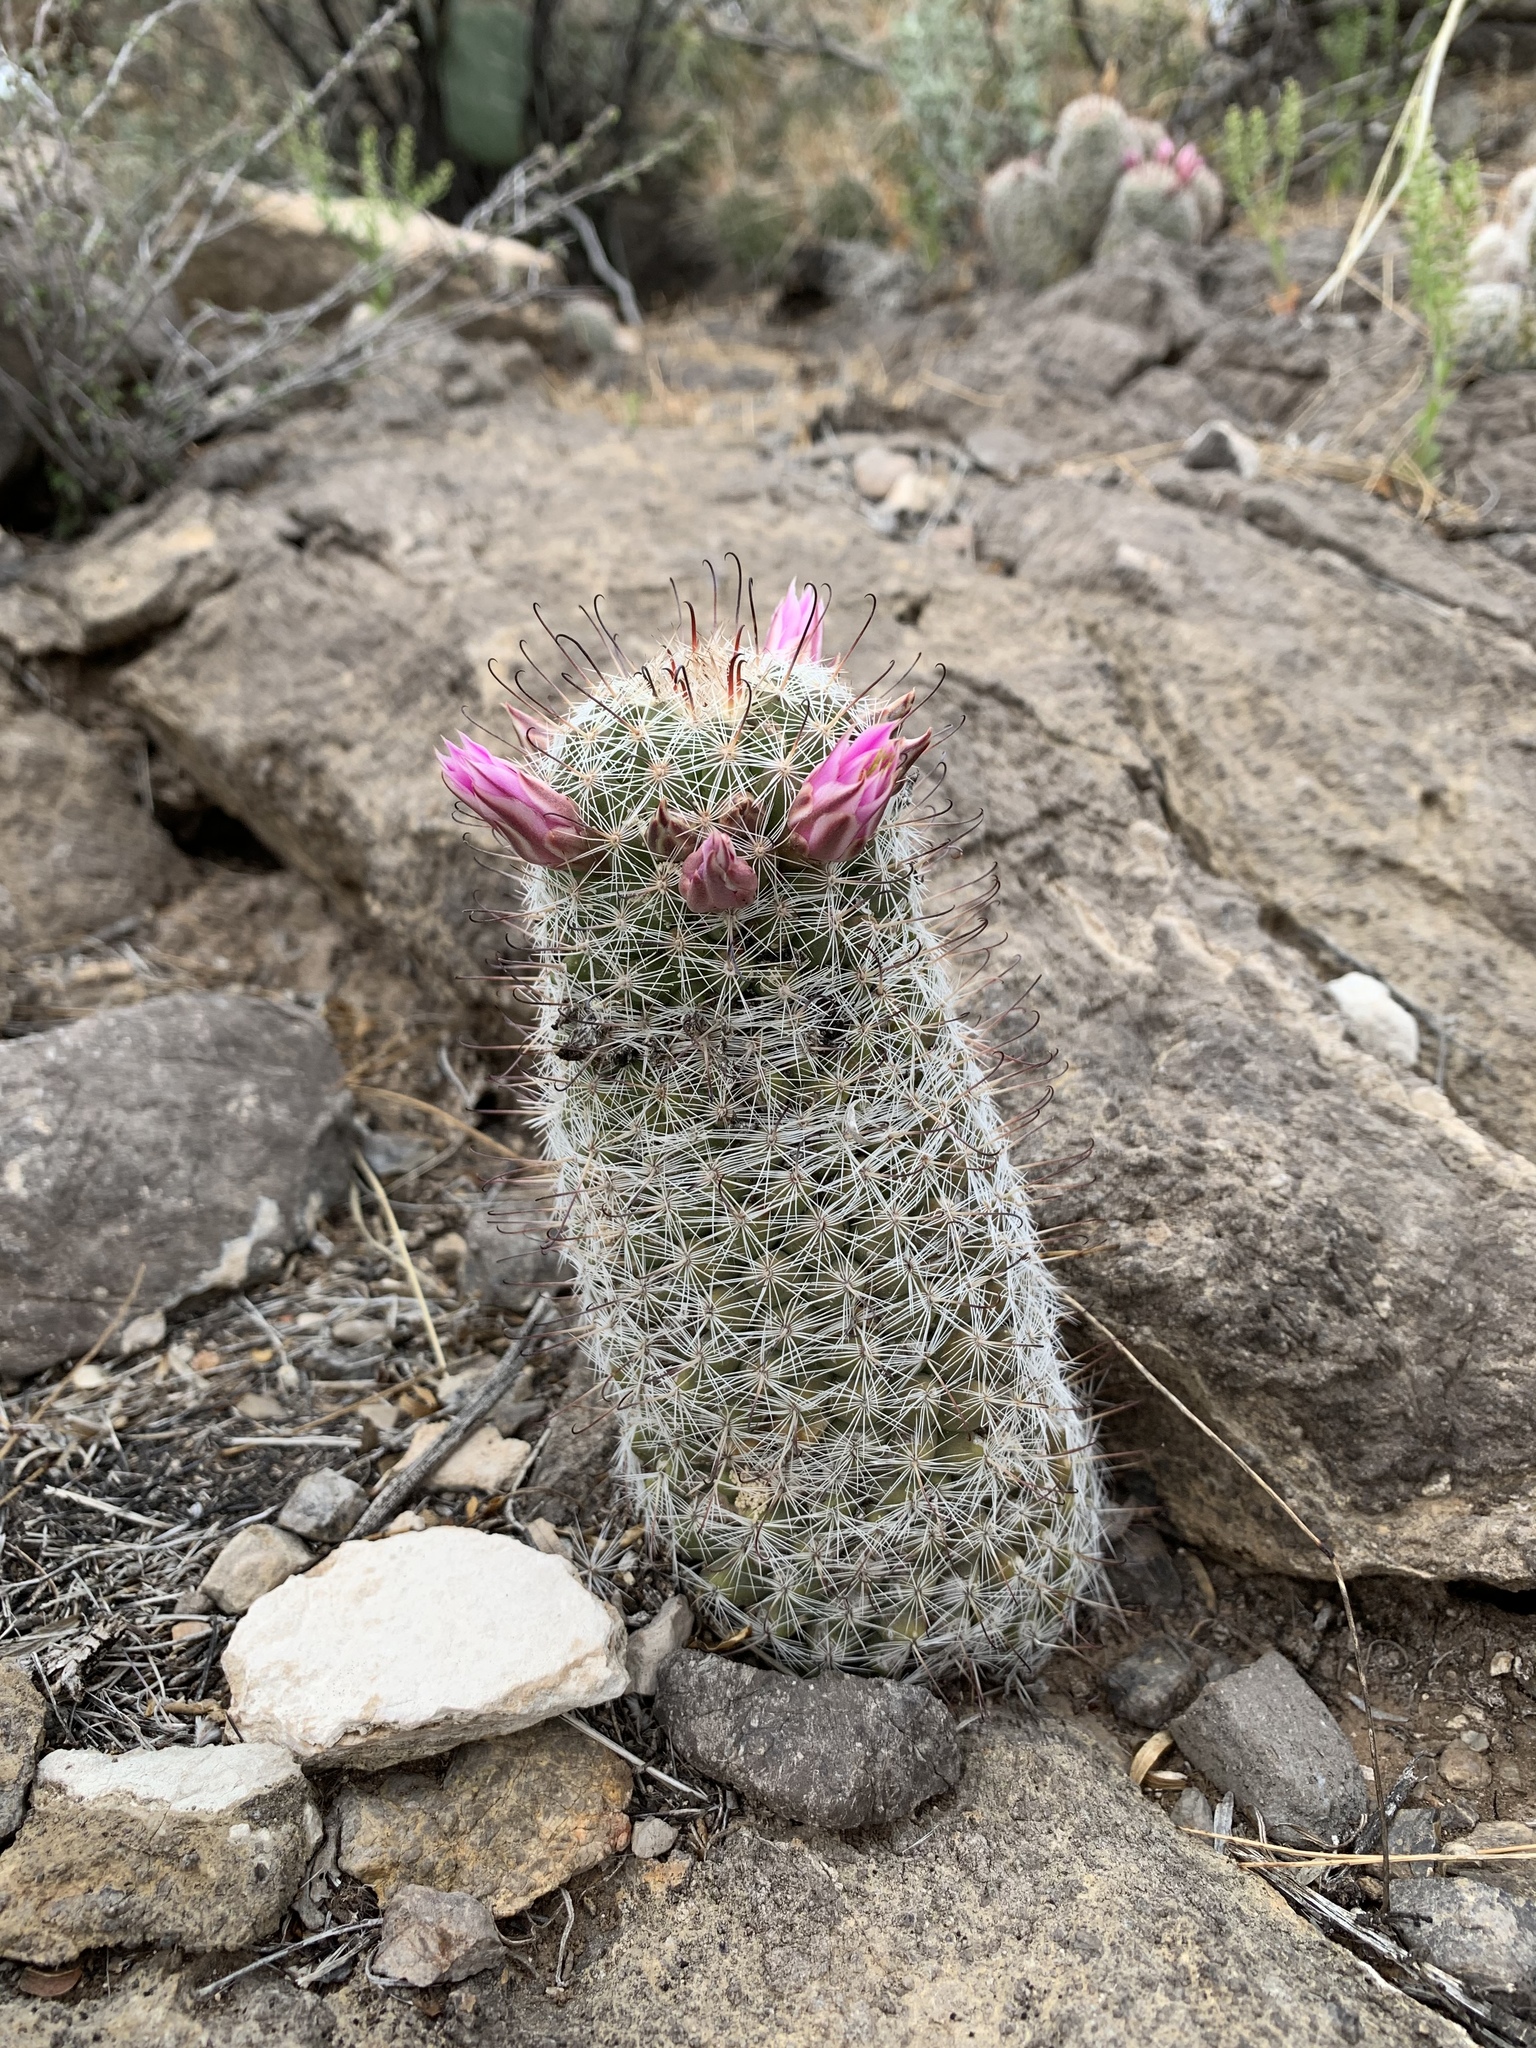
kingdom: Plantae
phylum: Tracheophyta
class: Magnoliopsida
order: Caryophyllales
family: Cactaceae
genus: Cochemiea
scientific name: Cochemiea grahamii
